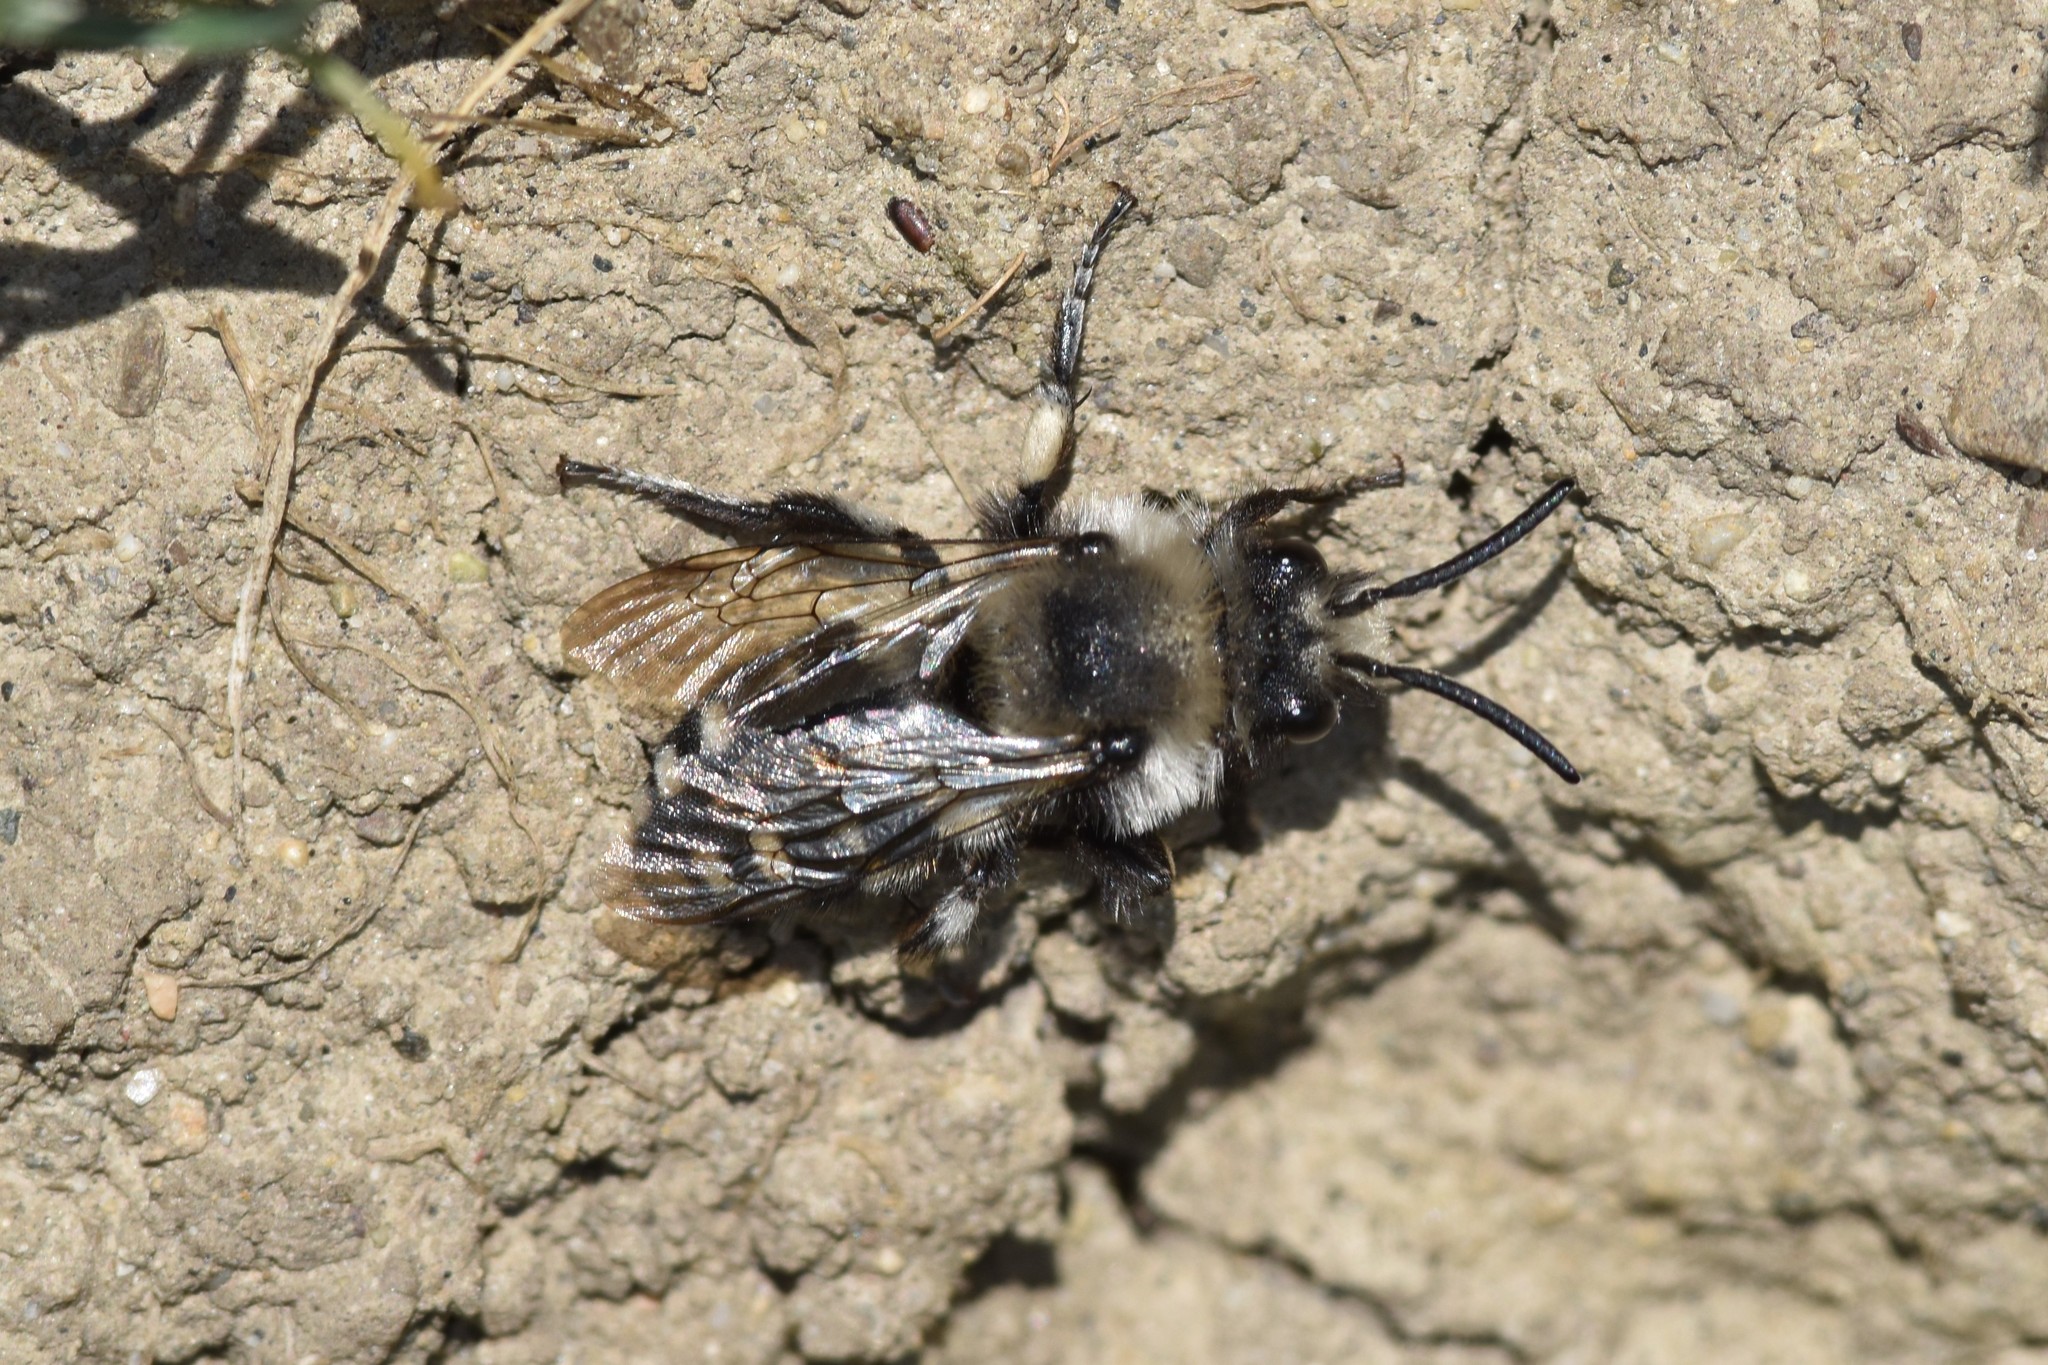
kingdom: Animalia
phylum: Arthropoda
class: Insecta
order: Hymenoptera
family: Apidae
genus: Melecta
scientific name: Melecta separata
